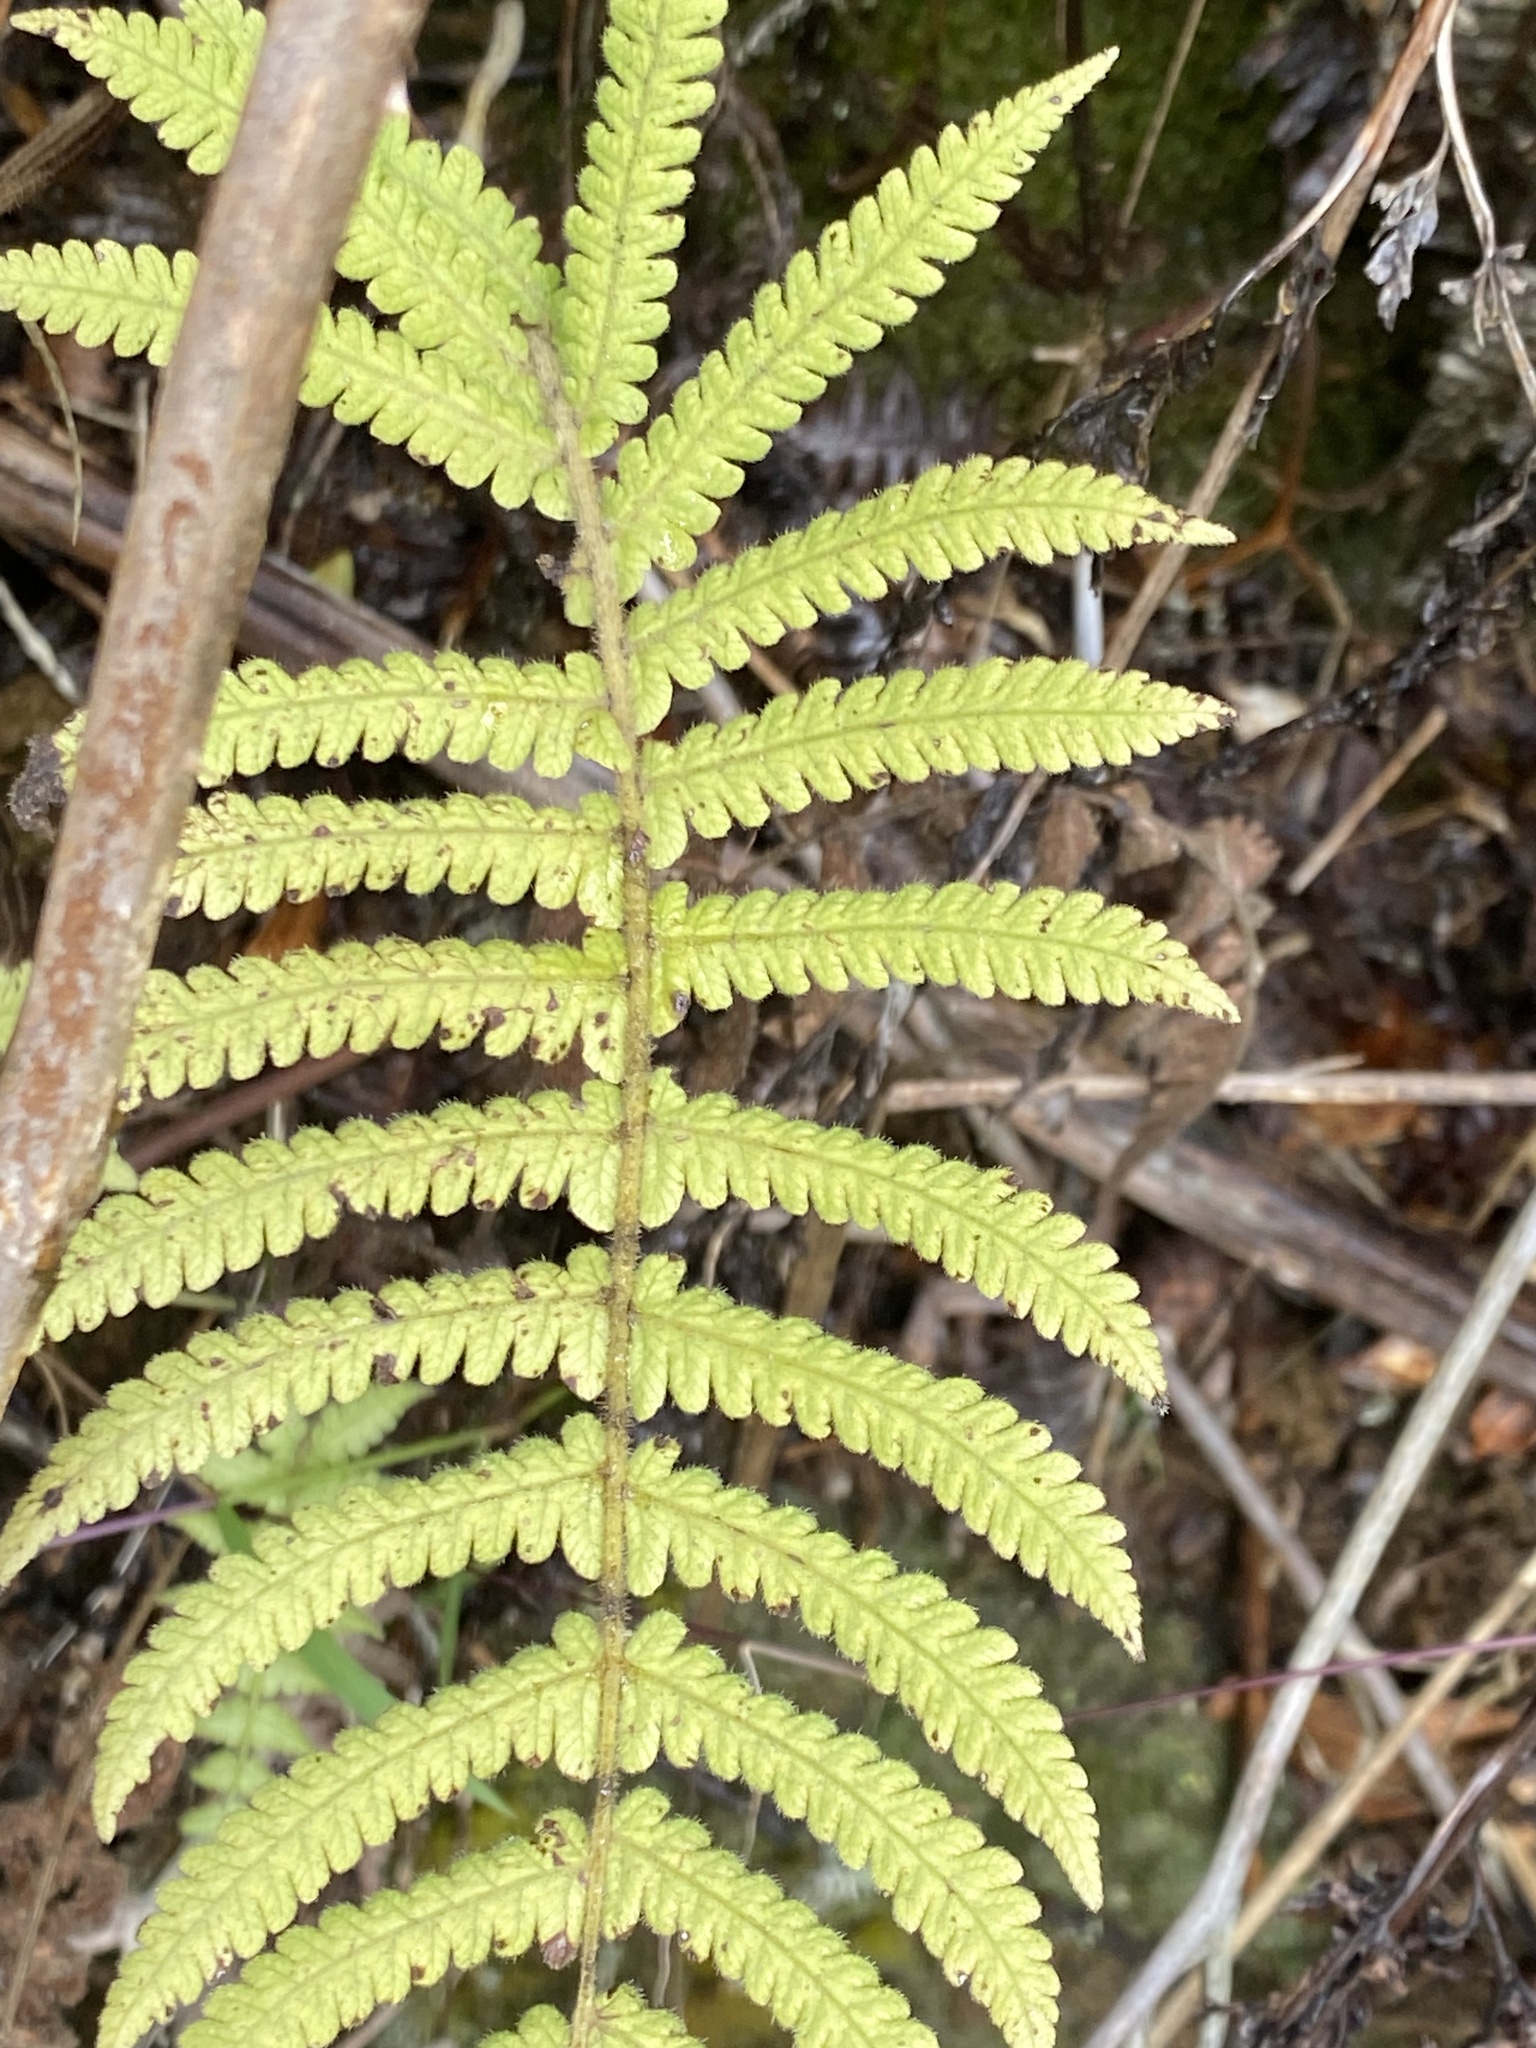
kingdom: Plantae
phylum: Tracheophyta
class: Polypodiopsida
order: Polypodiales
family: Thelypteridaceae
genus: Christella
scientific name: Christella parasitica
